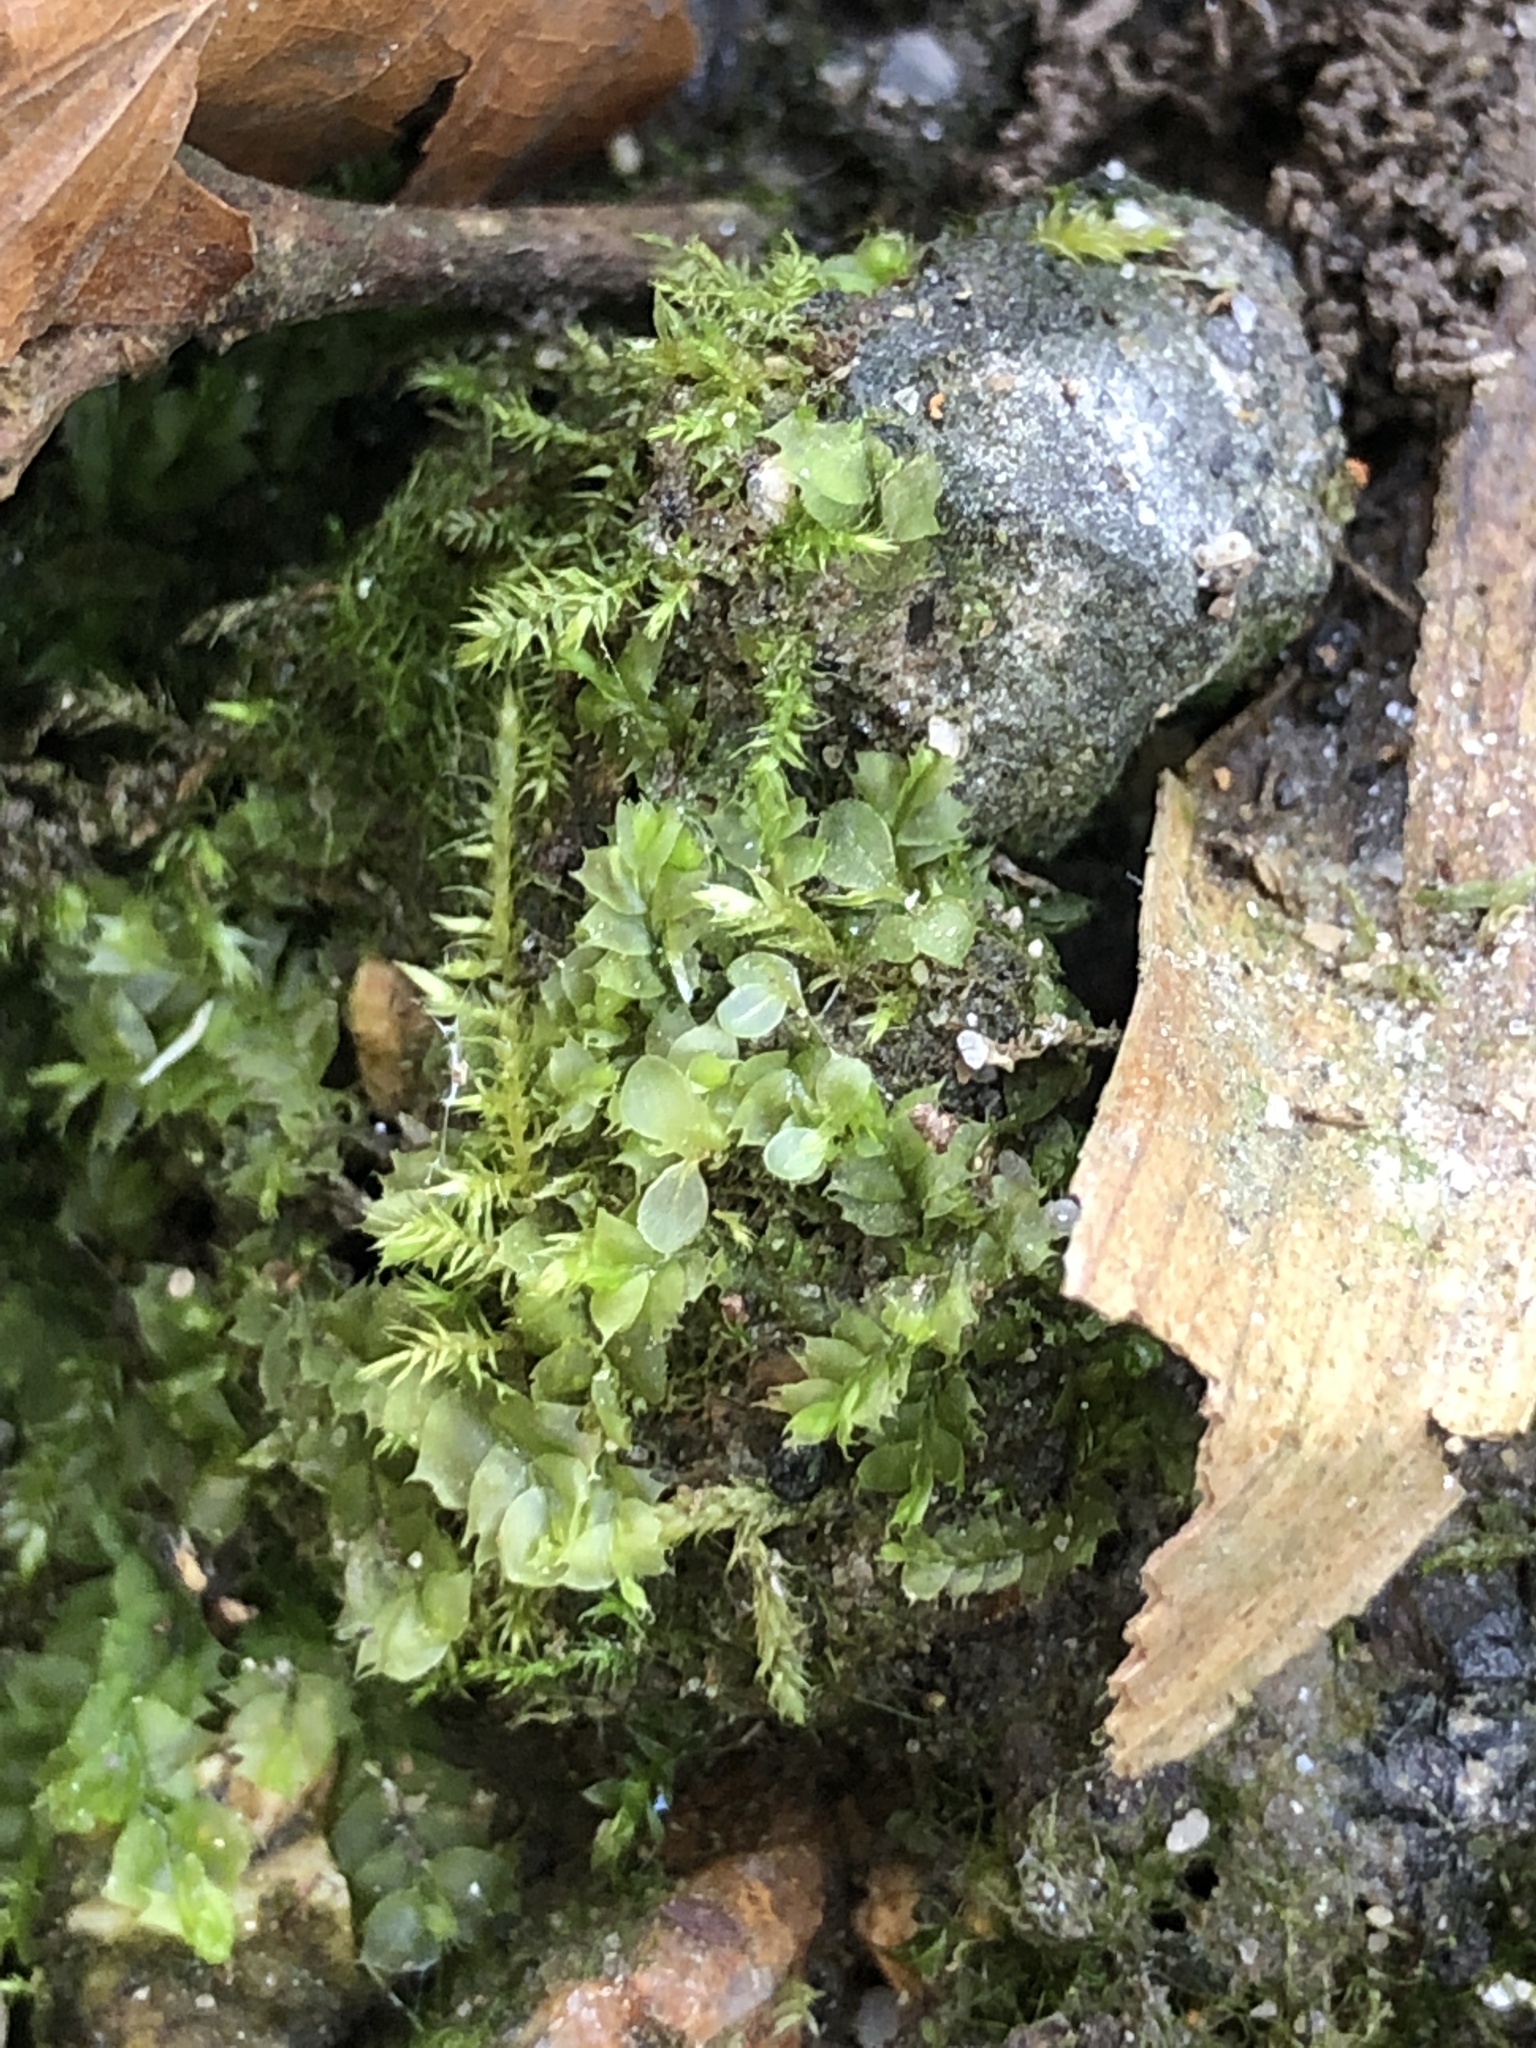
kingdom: Plantae
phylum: Bryophyta
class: Bryopsida
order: Bryales
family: Mniaceae
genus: Rhizomnium
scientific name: Rhizomnium punctatum
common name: Dotted leafy moss
